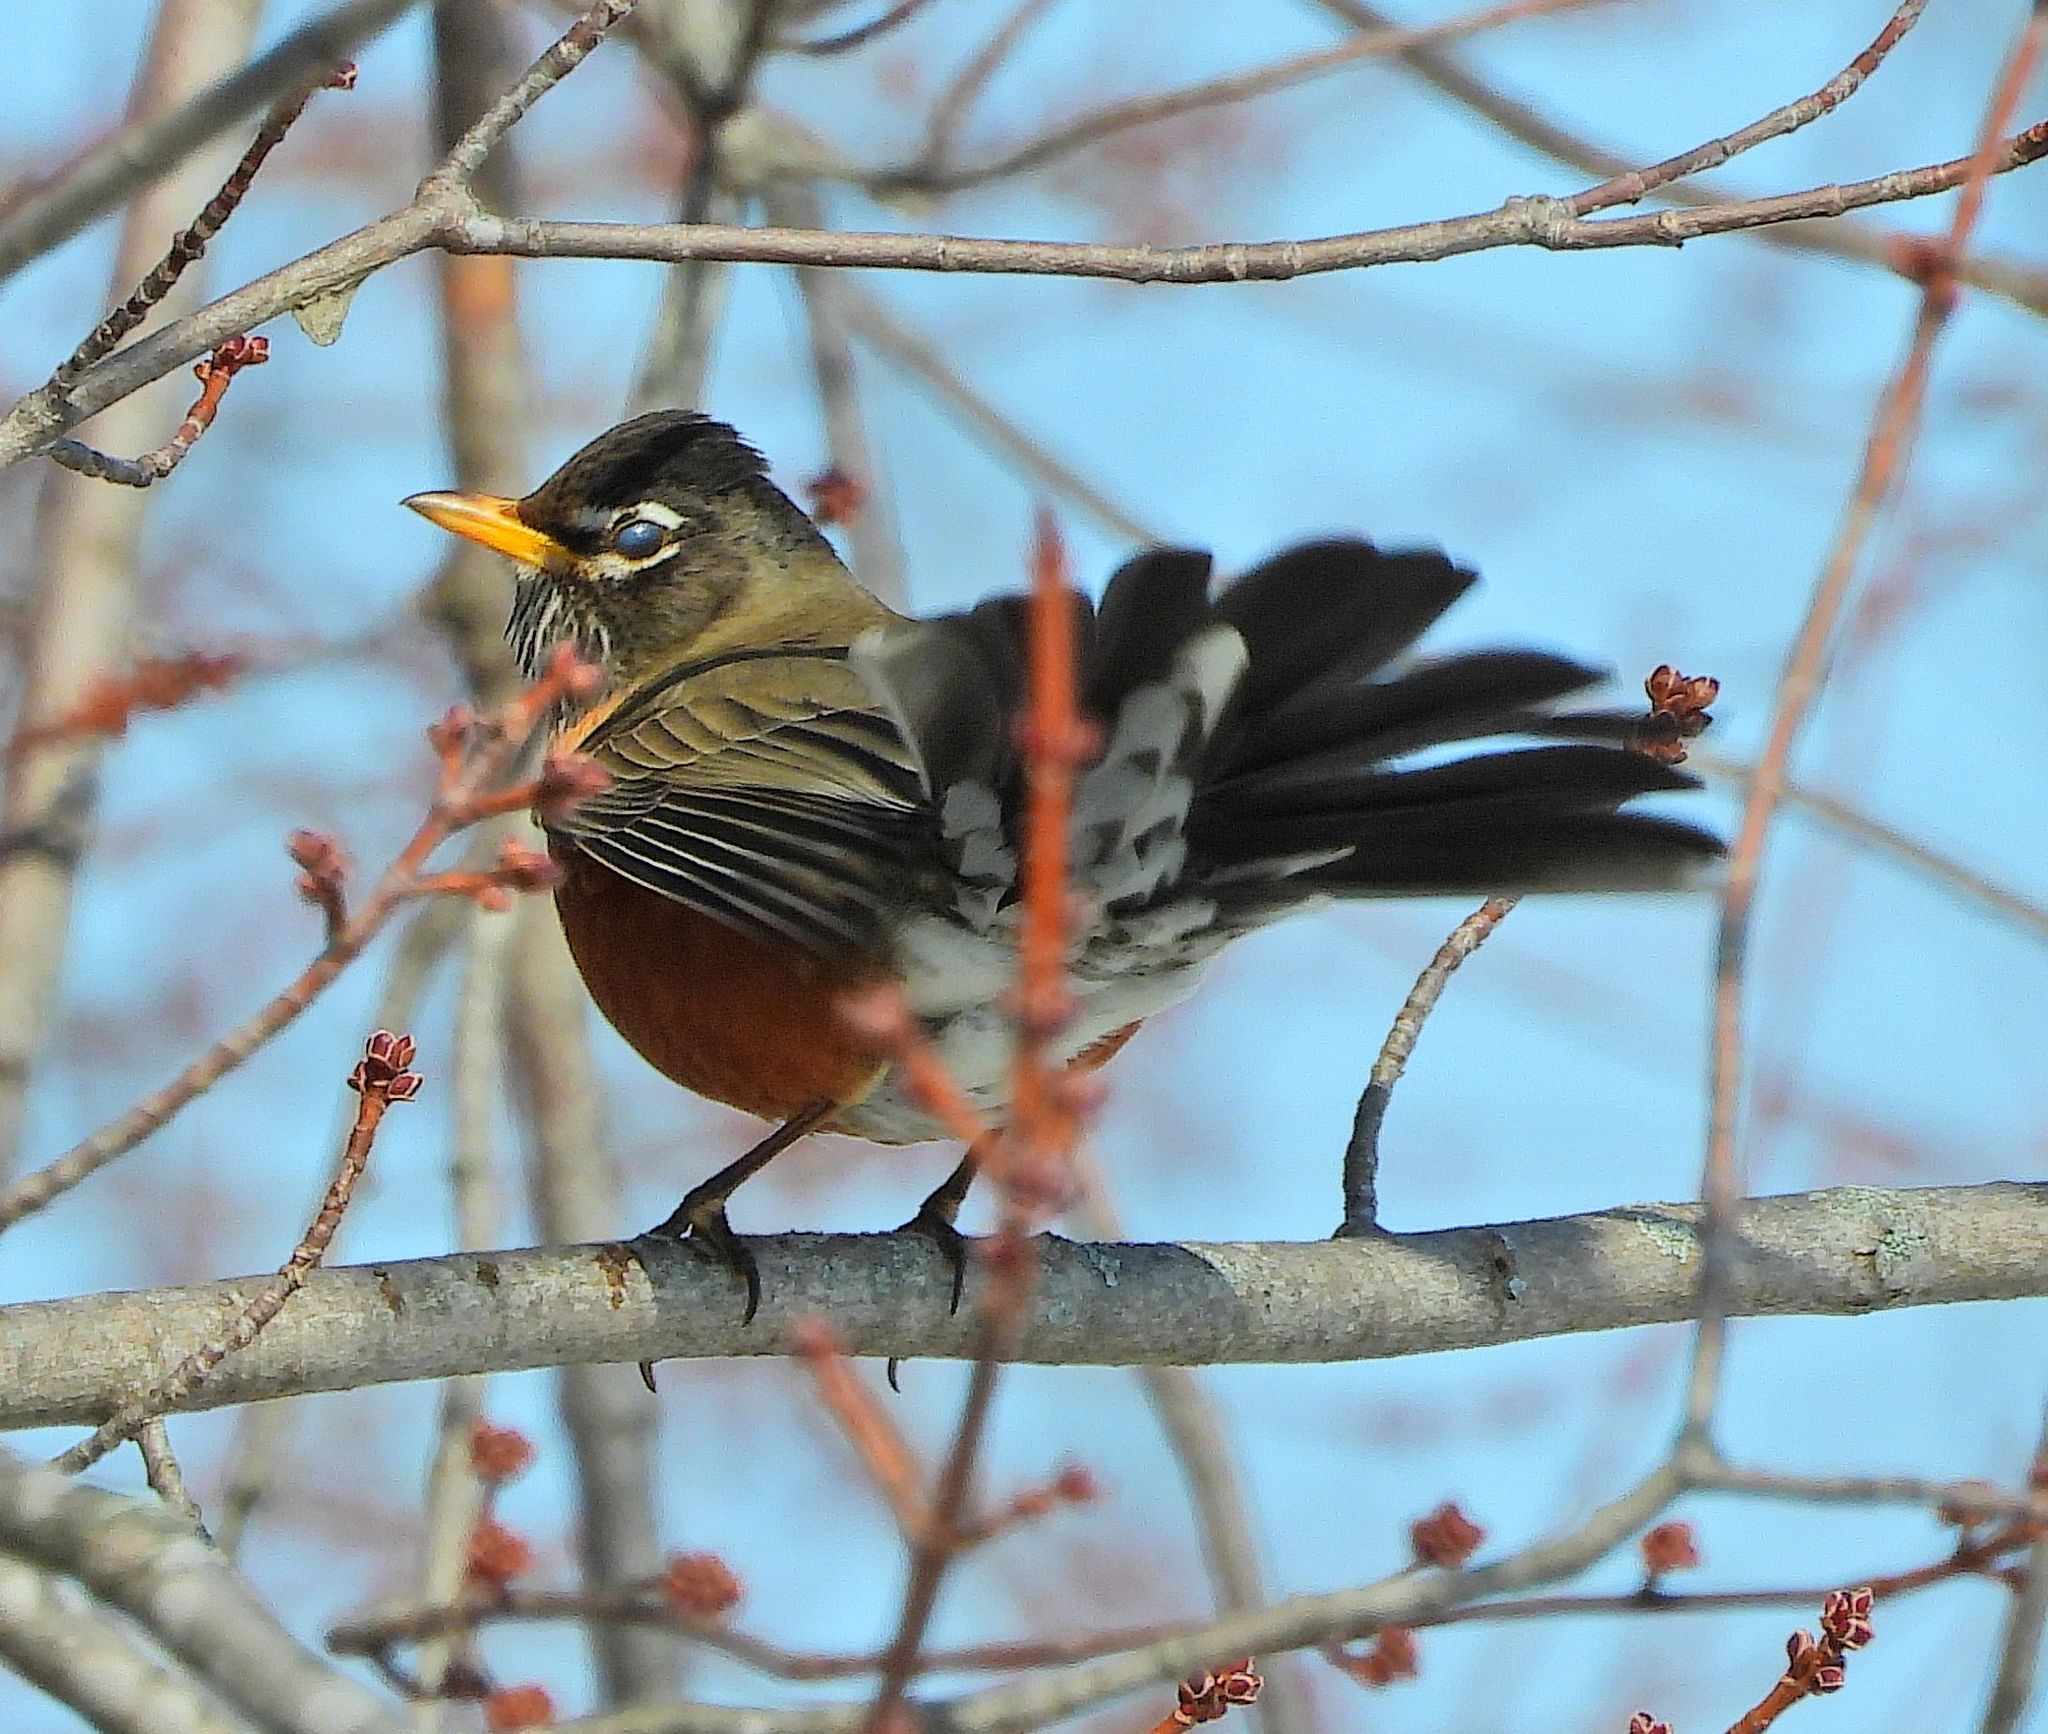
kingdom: Animalia
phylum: Chordata
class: Aves
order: Passeriformes
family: Turdidae
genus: Turdus
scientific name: Turdus migratorius
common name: American robin
